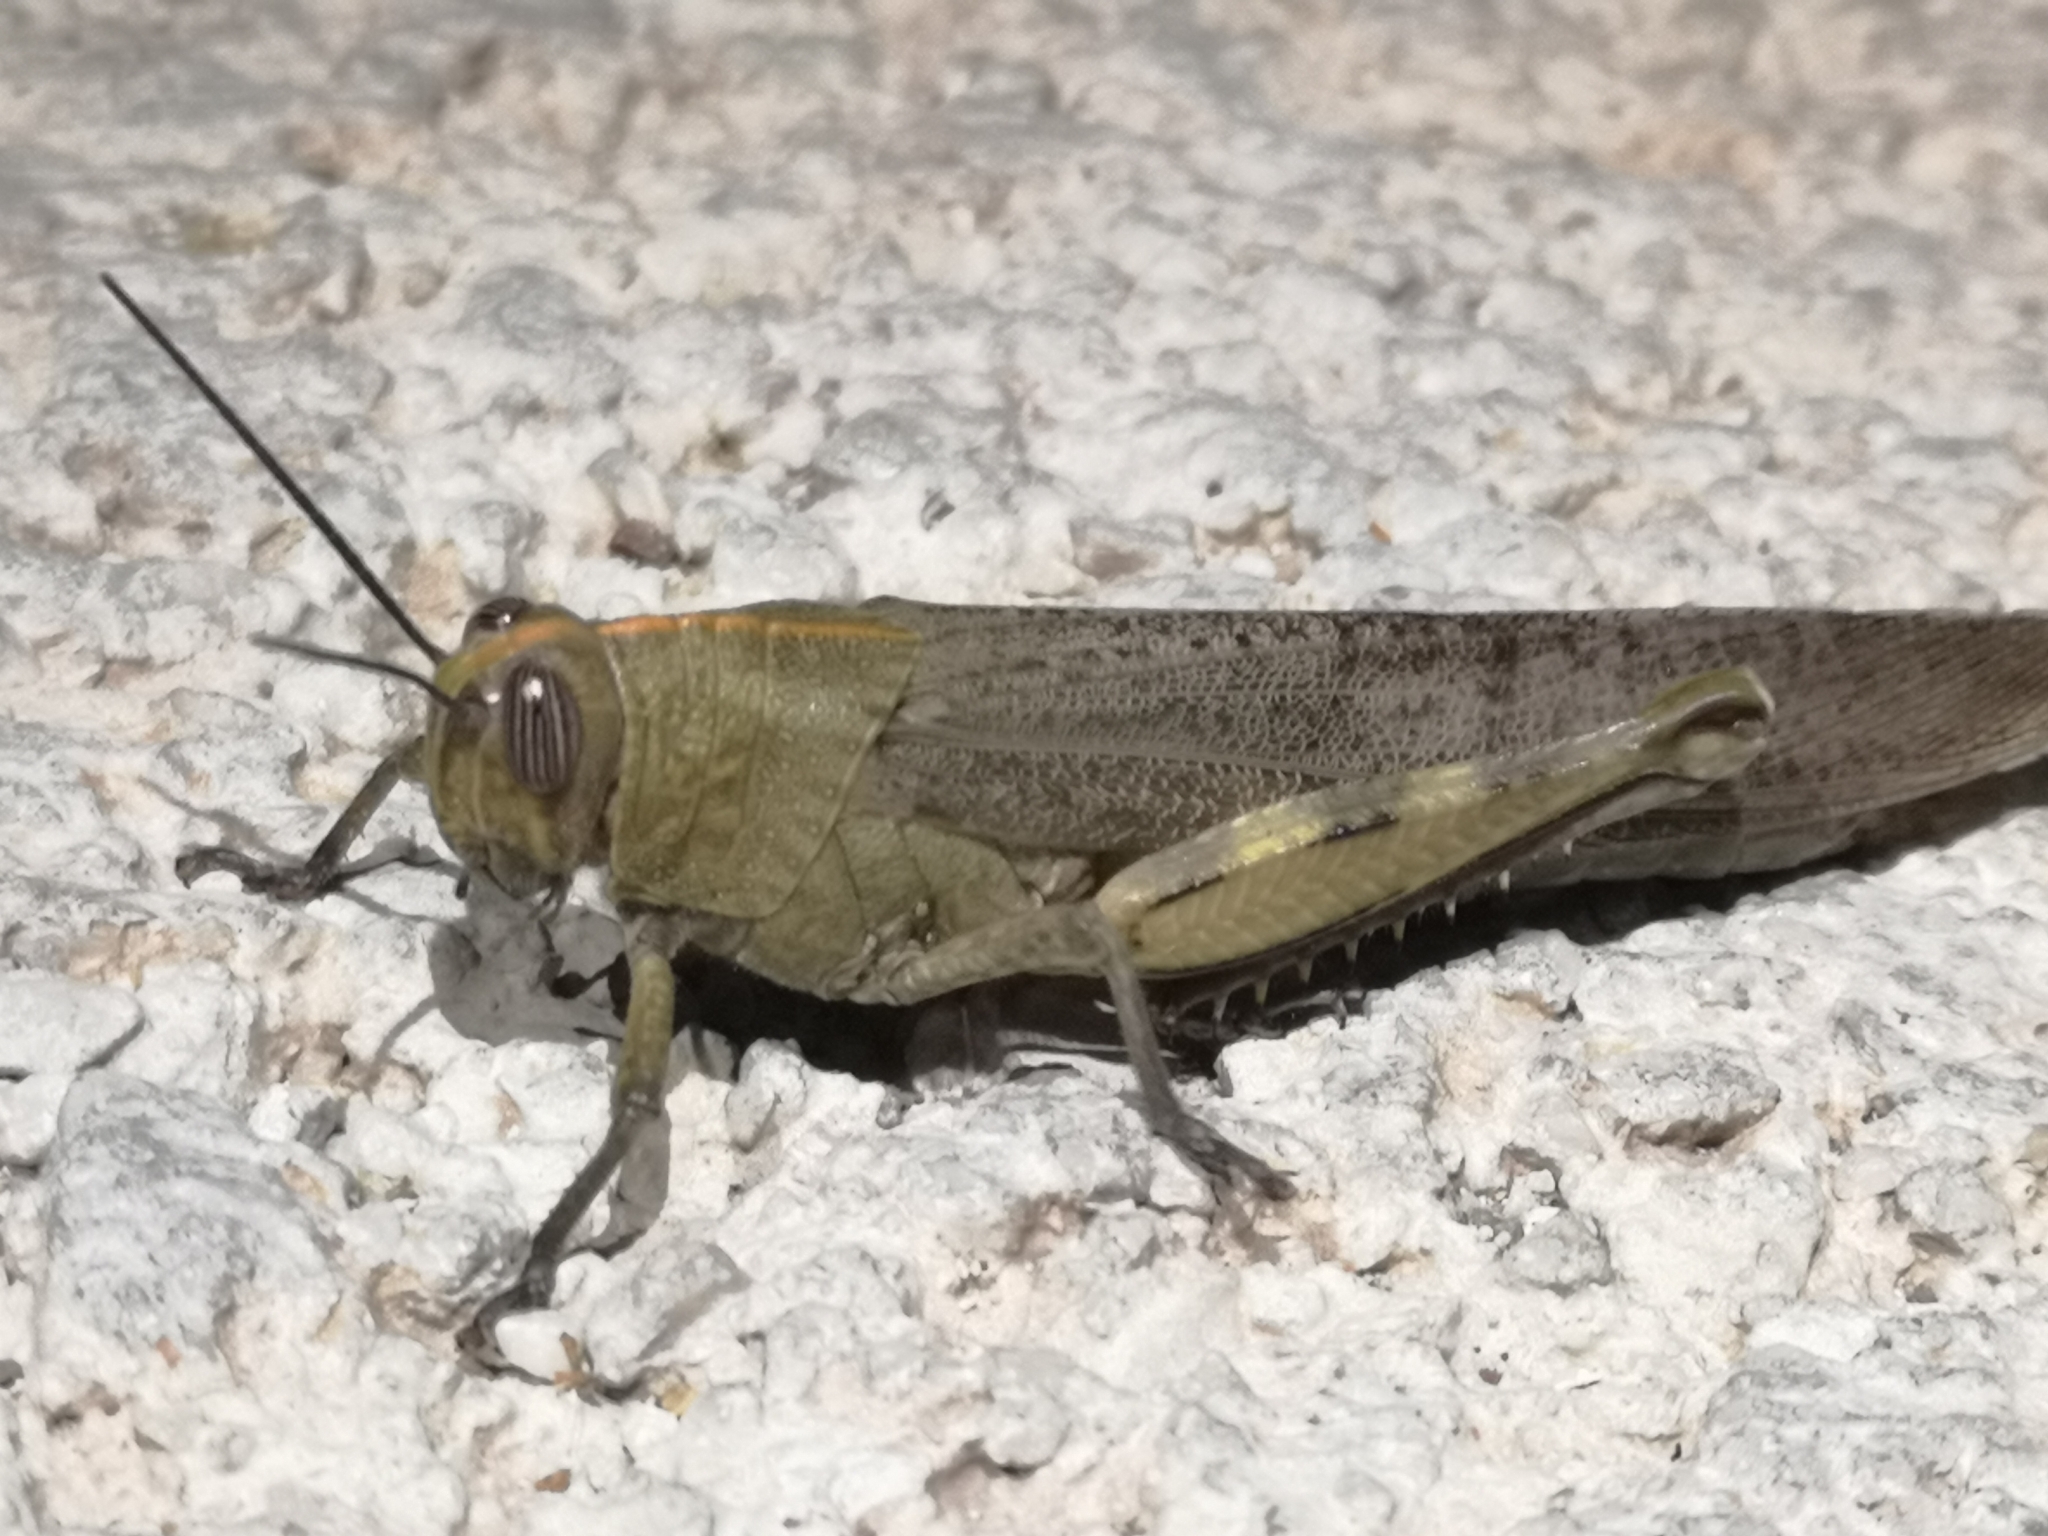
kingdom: Animalia
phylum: Arthropoda
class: Insecta
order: Orthoptera
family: Acrididae
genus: Anacridium
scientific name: Anacridium aegyptium
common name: Egyptian grasshopper
